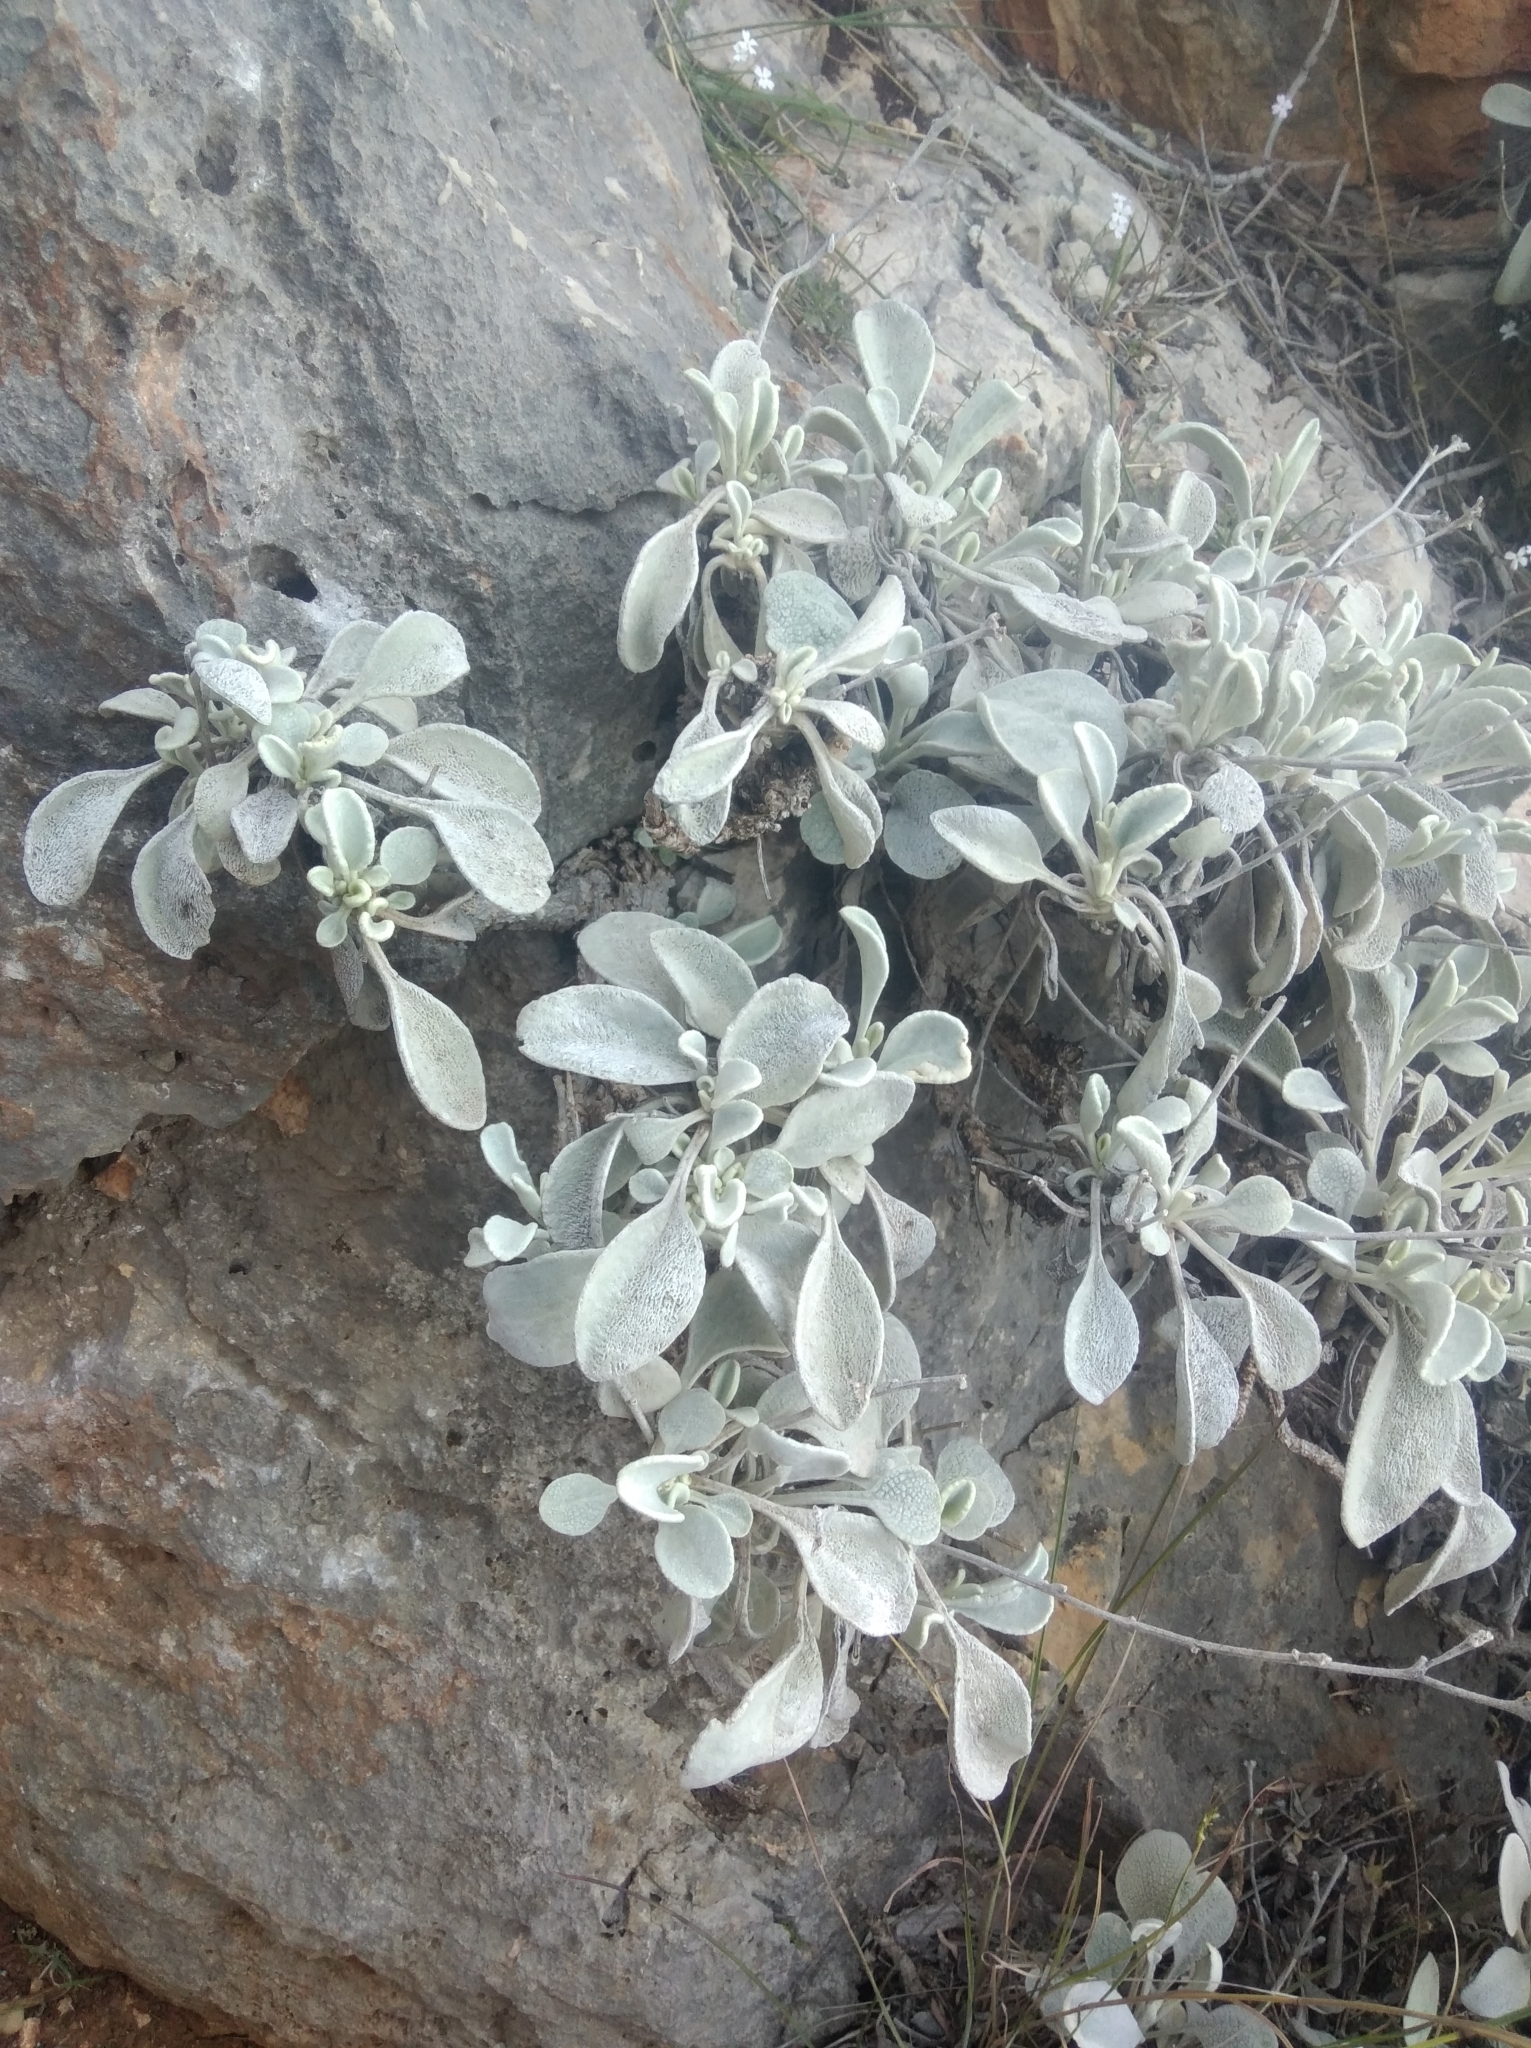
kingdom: Plantae
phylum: Tracheophyta
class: Magnoliopsida
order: Asterales
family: Asteraceae
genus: Pentanema
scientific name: Pentanema verbascifolium
